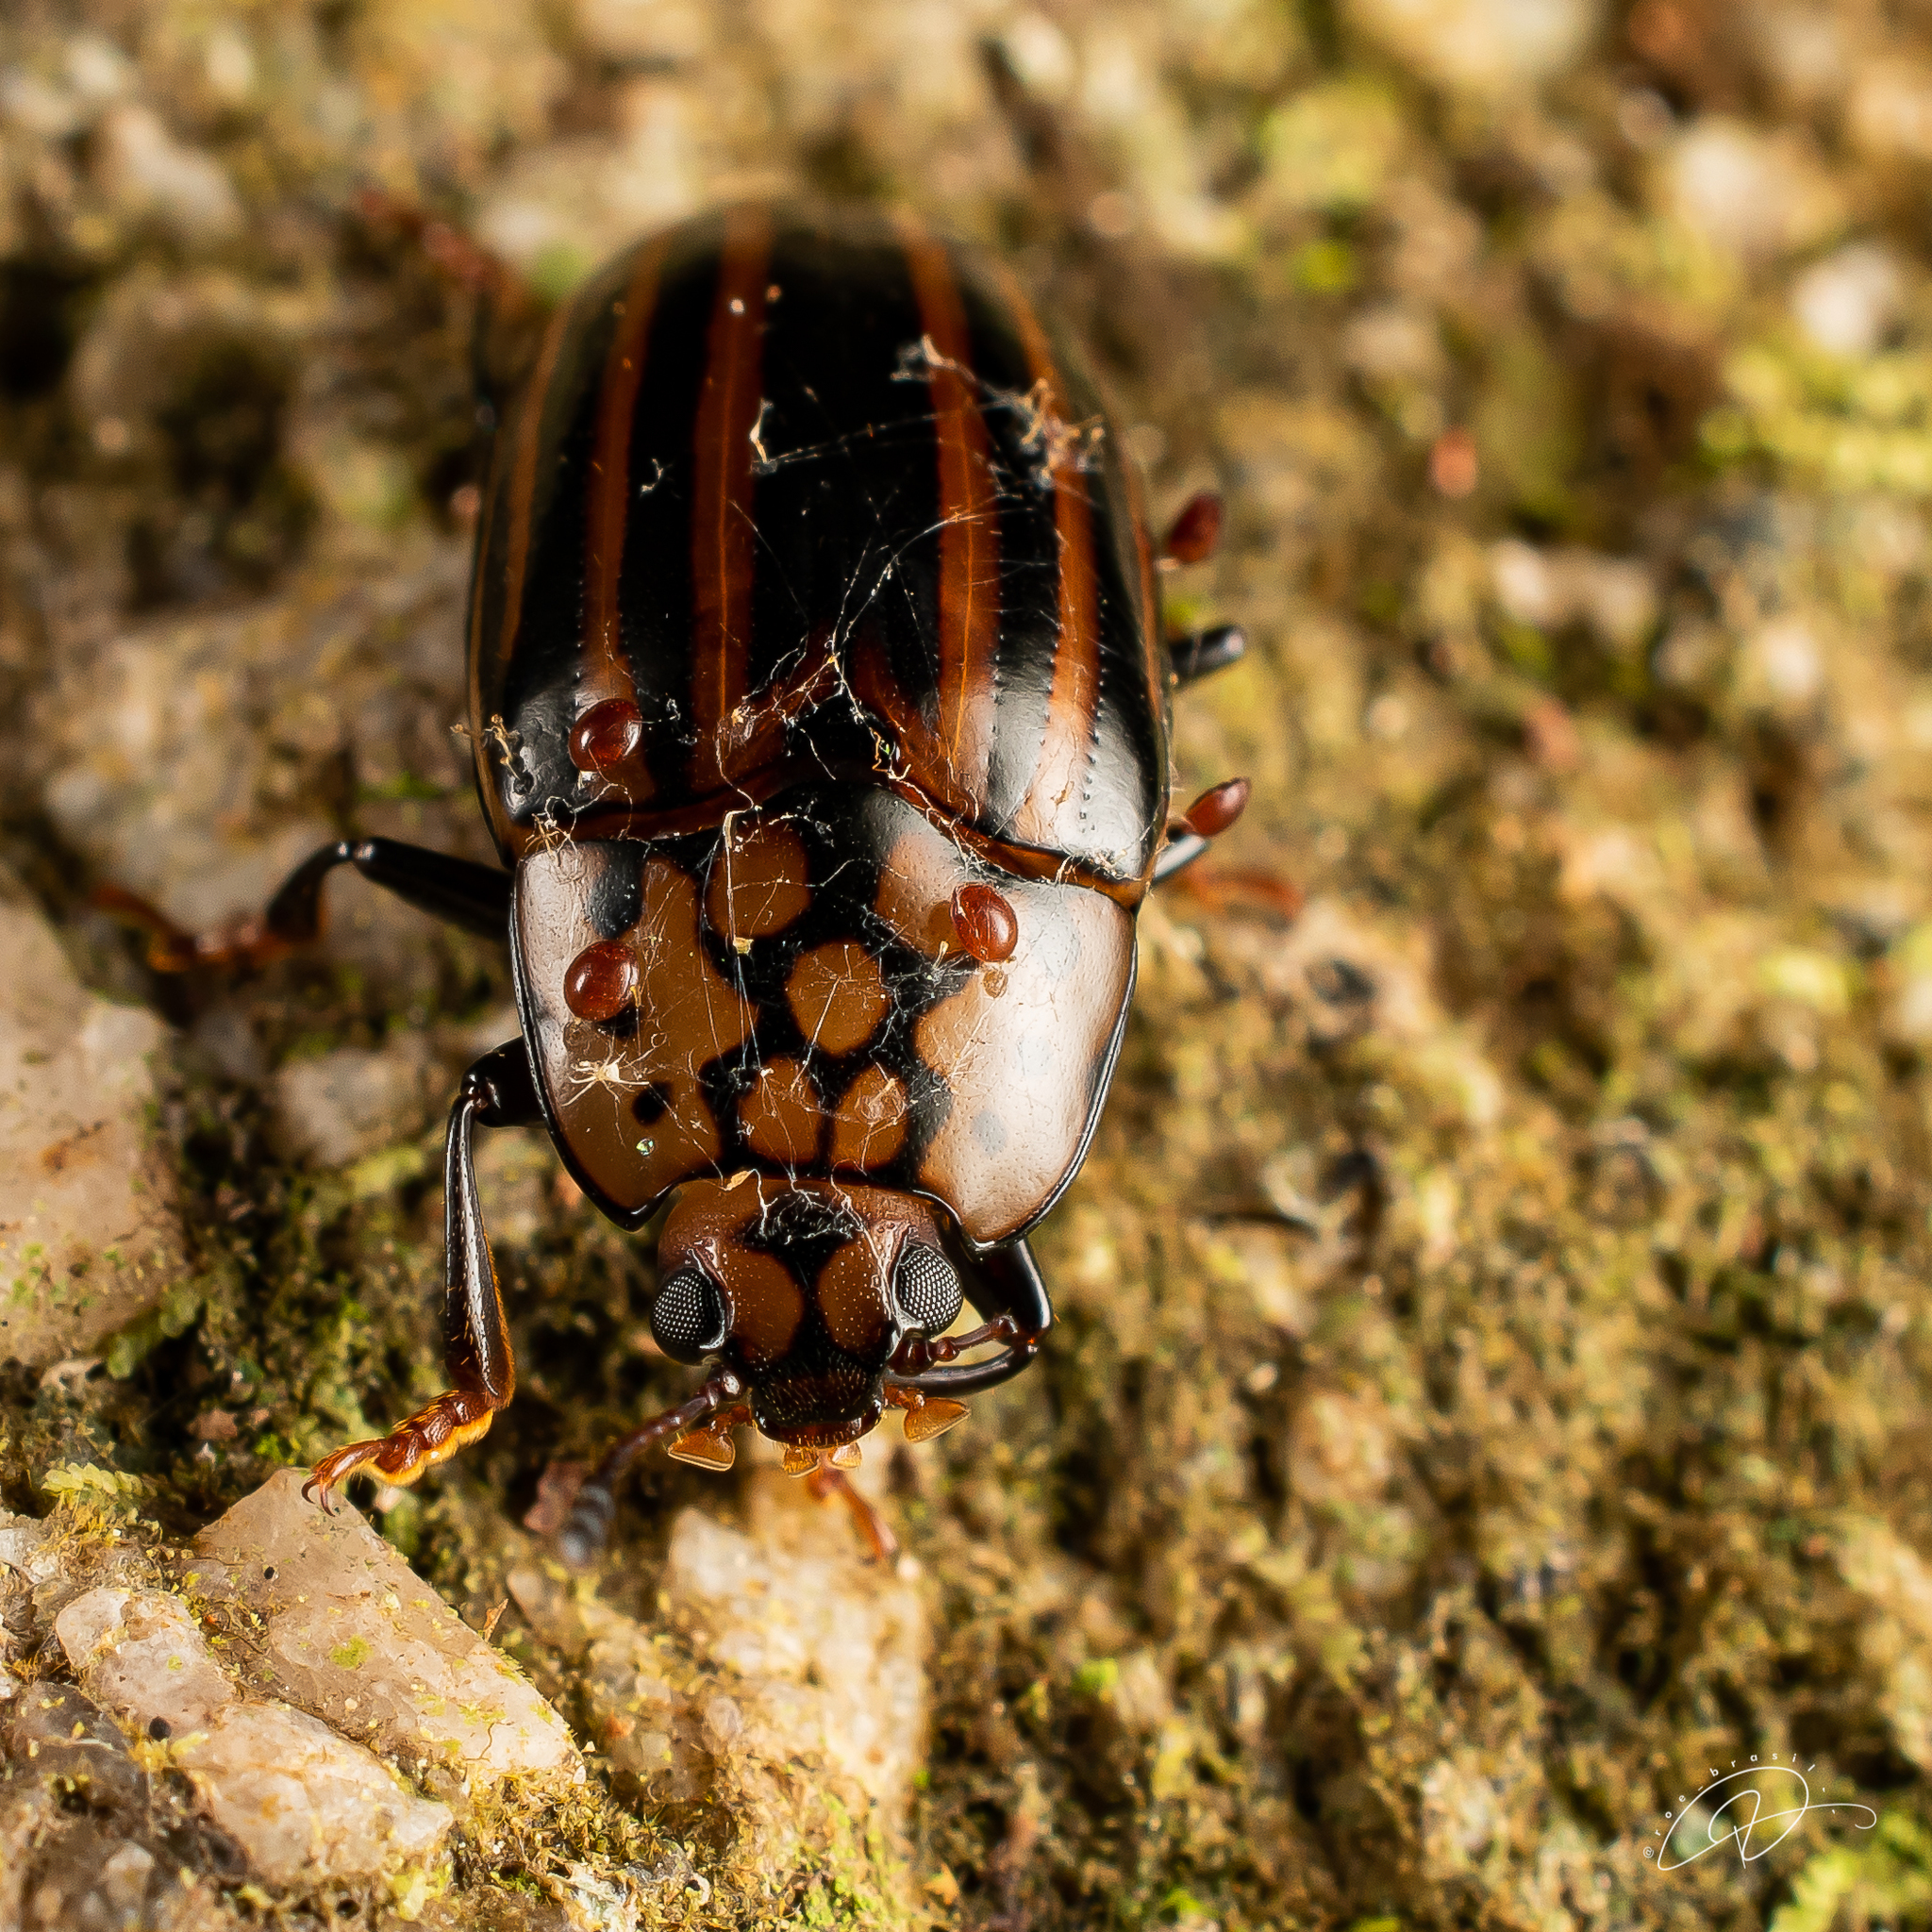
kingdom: Animalia
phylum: Arthropoda
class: Insecta
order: Coleoptera
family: Erotylidae
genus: Megischyrus
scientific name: Megischyrus
